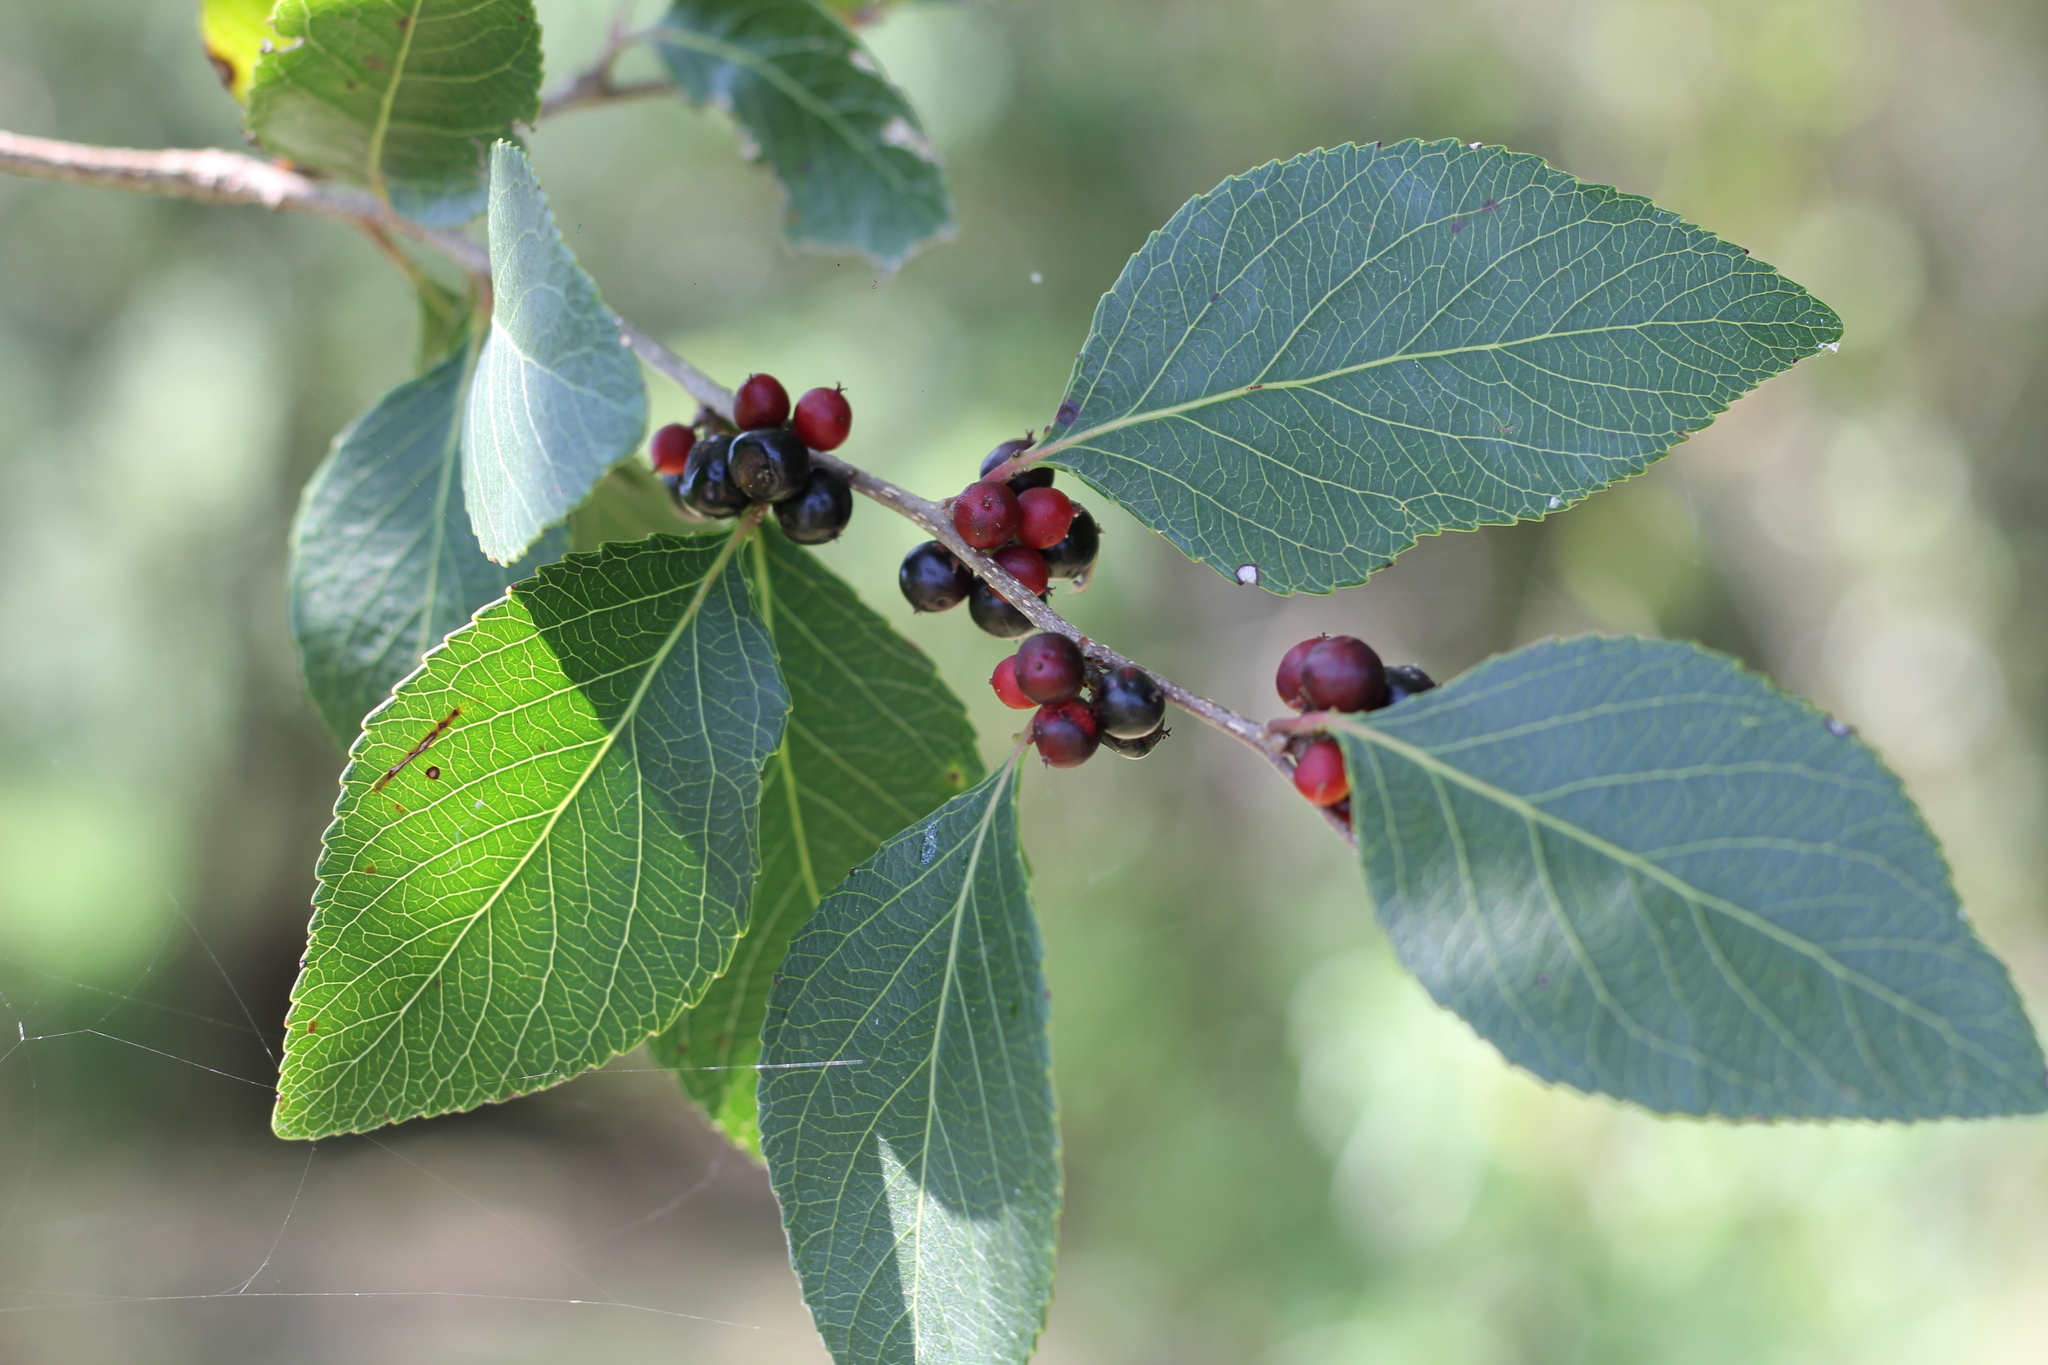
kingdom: Plantae
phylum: Tracheophyta
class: Magnoliopsida
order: Malpighiales
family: Salicaceae
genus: Xylosma
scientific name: Xylosma venosa
